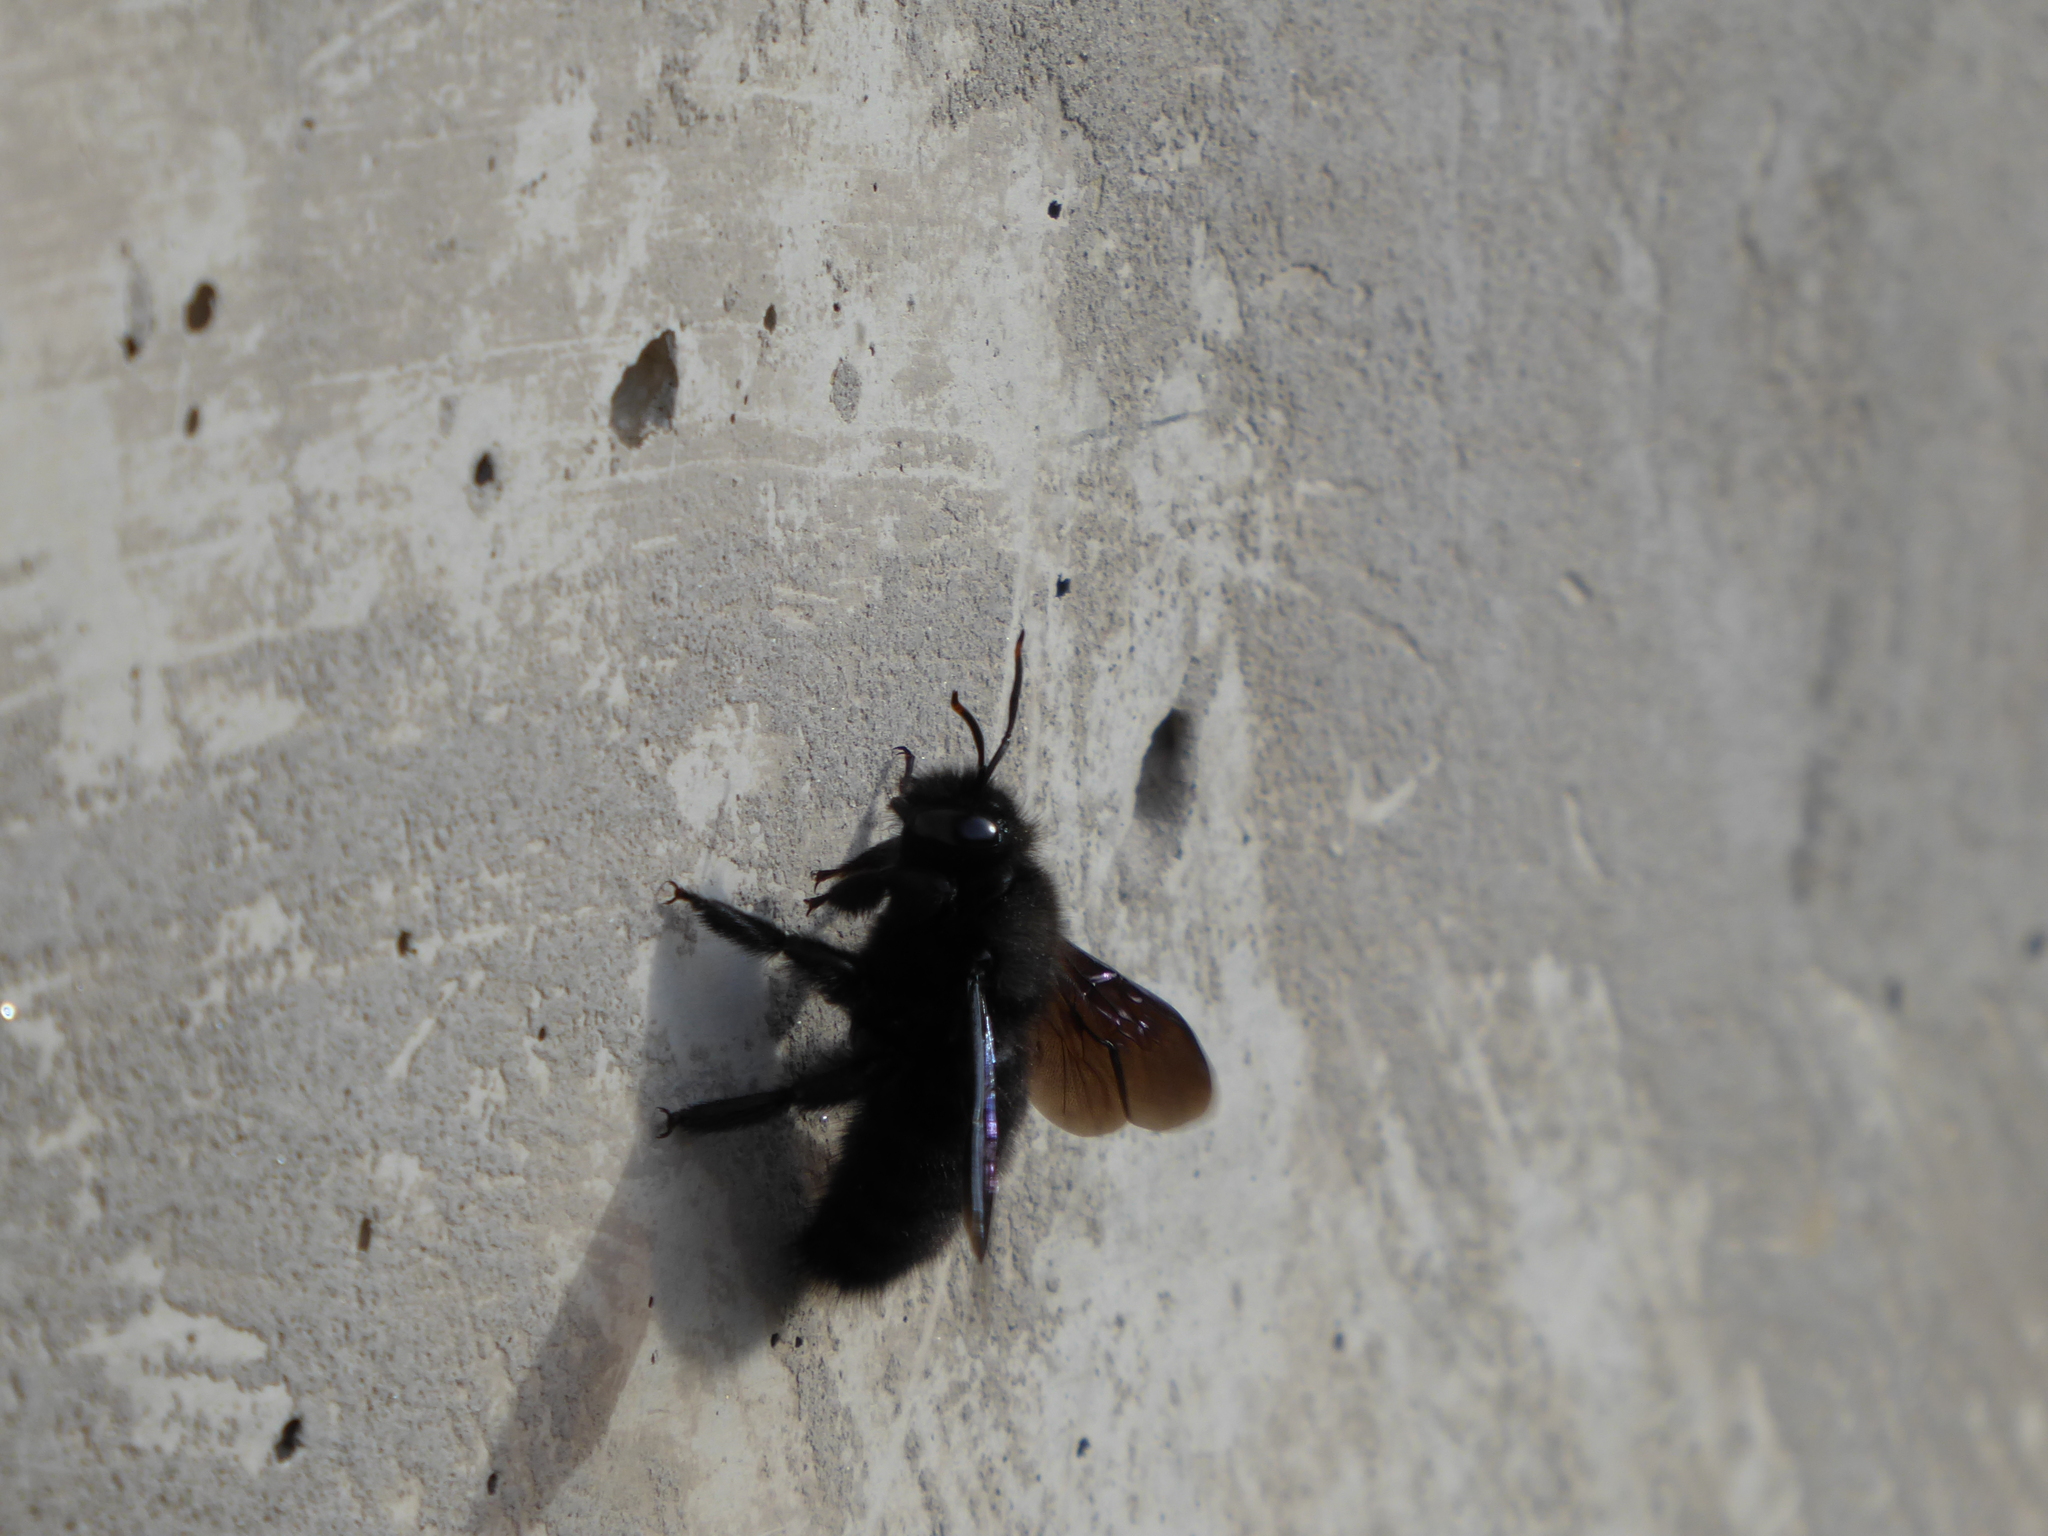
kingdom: Animalia
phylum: Arthropoda
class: Insecta
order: Hymenoptera
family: Apidae
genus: Xylocopa
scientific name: Xylocopa violacea
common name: Violet carpenter bee
